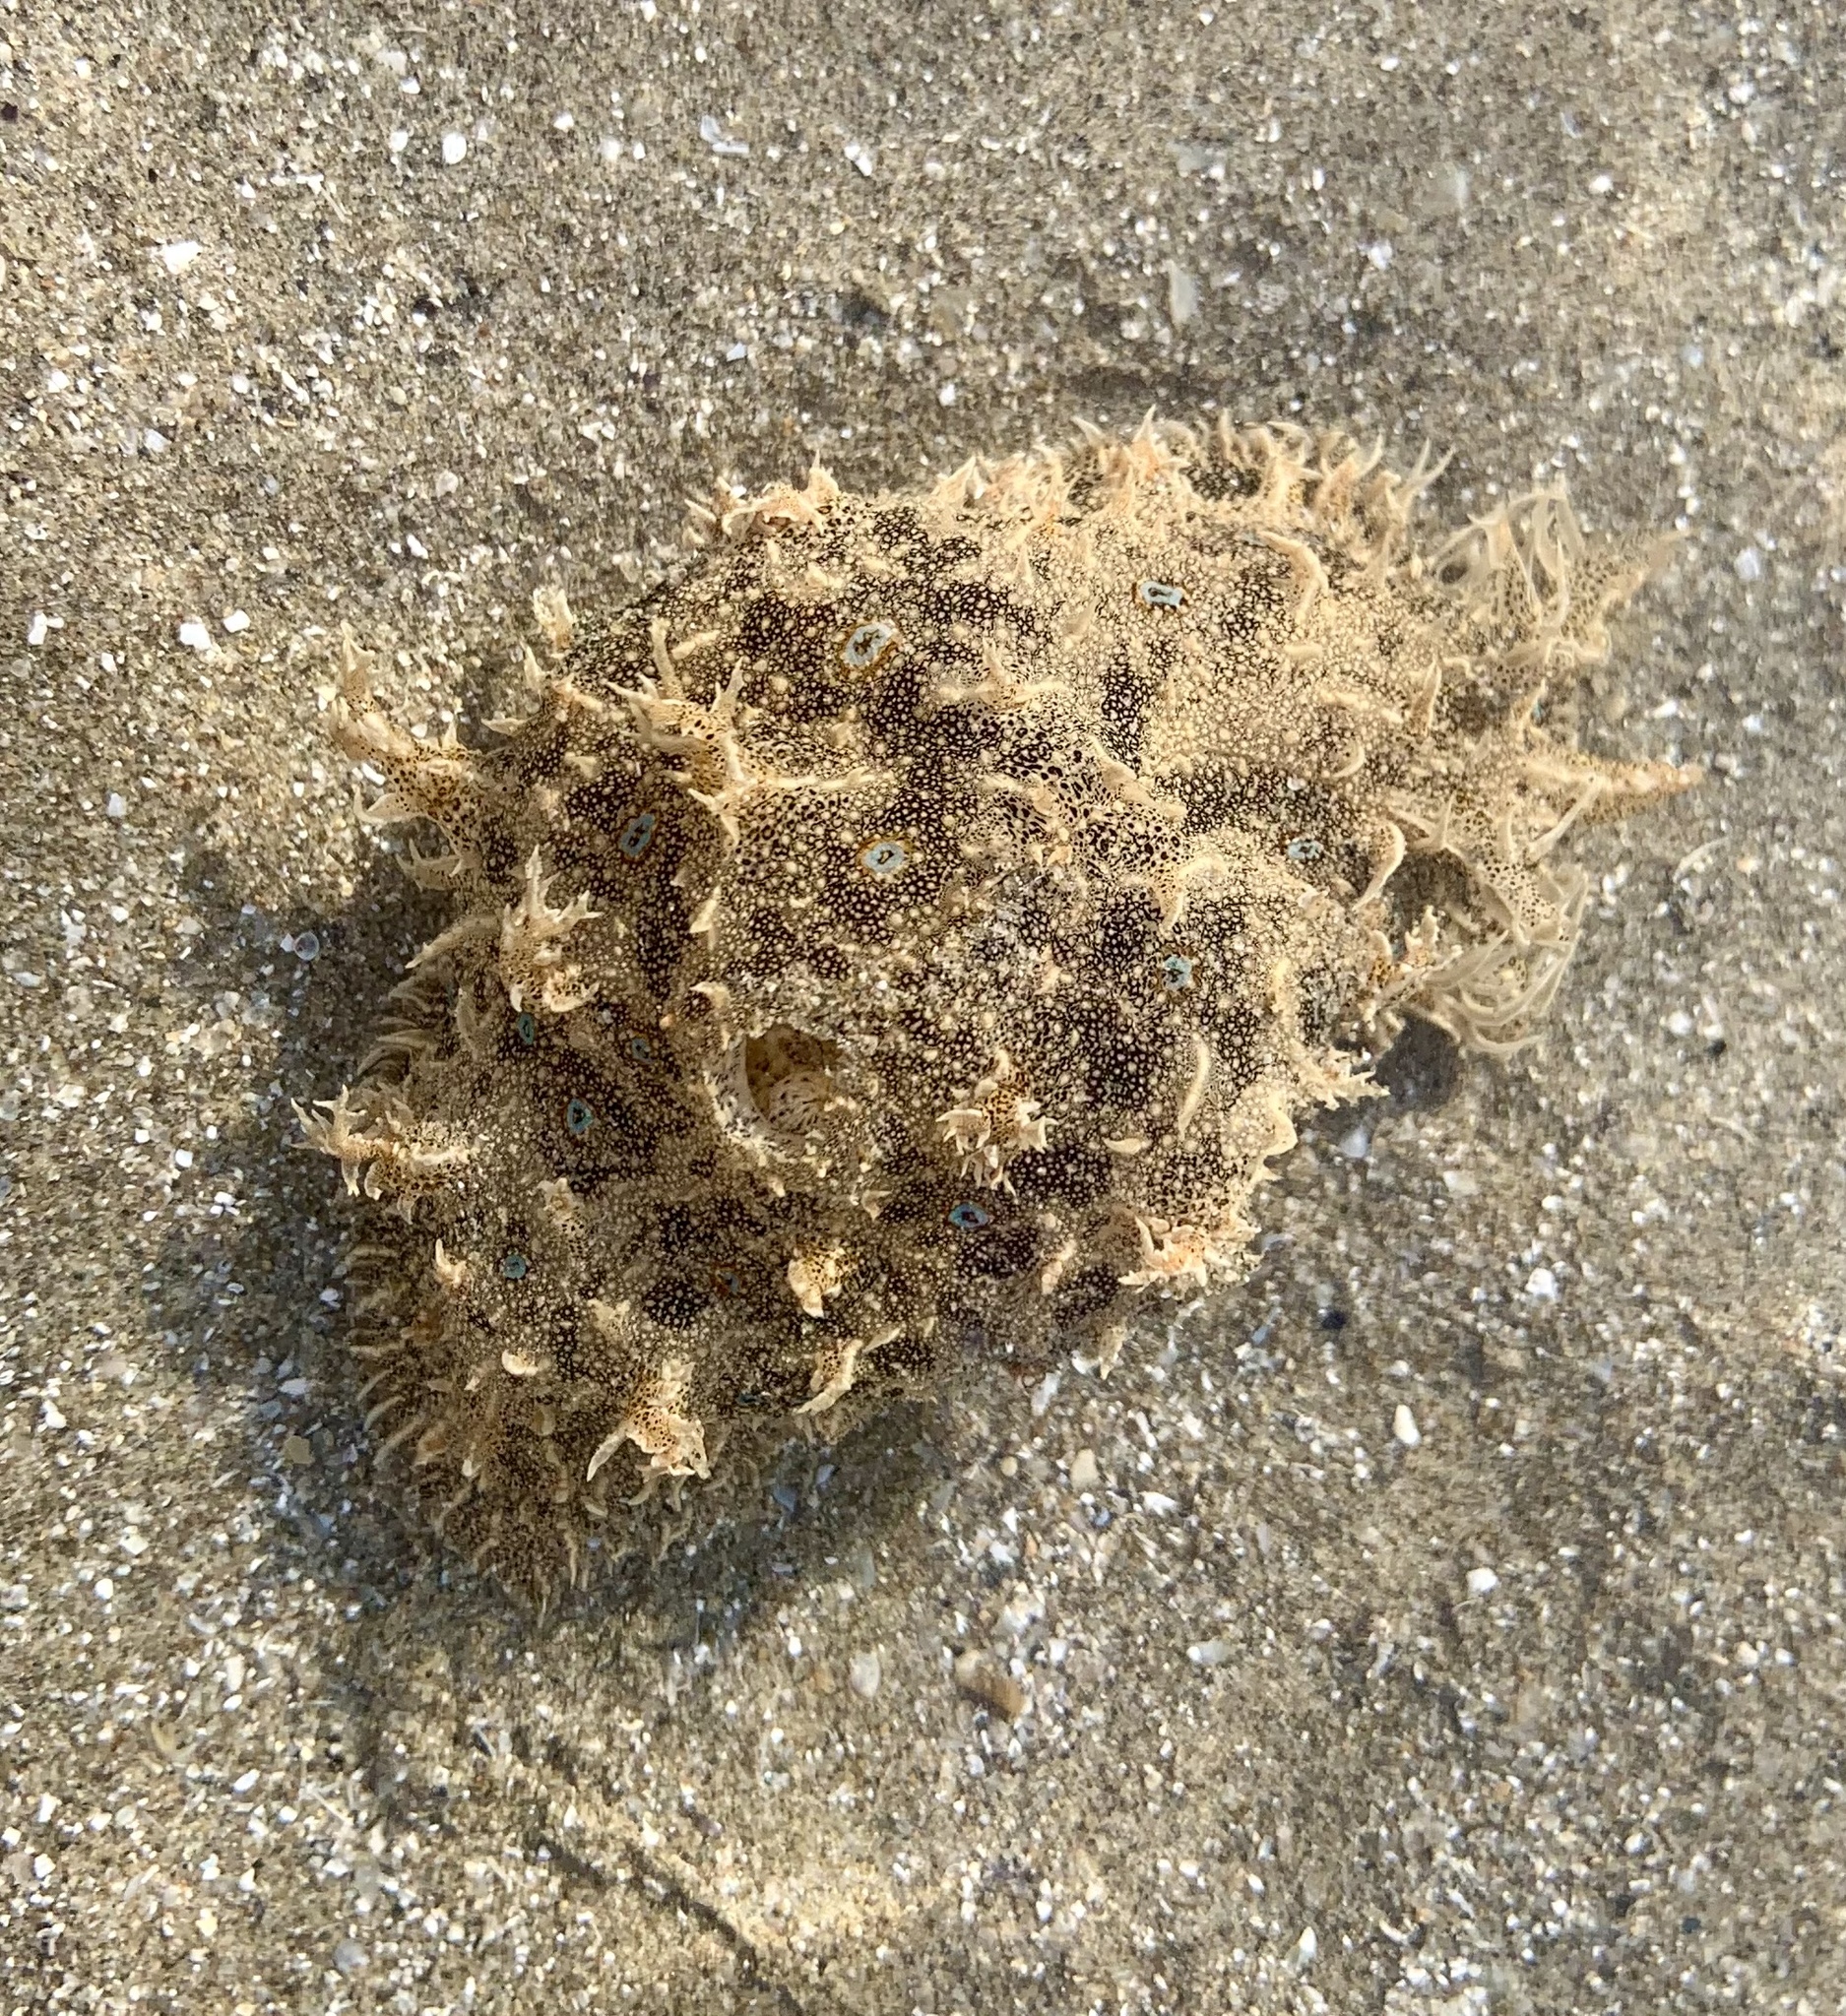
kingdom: Animalia
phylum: Mollusca
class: Gastropoda
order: Aplysiida
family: Aplysiidae
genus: Bursatella
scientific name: Bursatella leachii
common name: Shaggy sea hare
